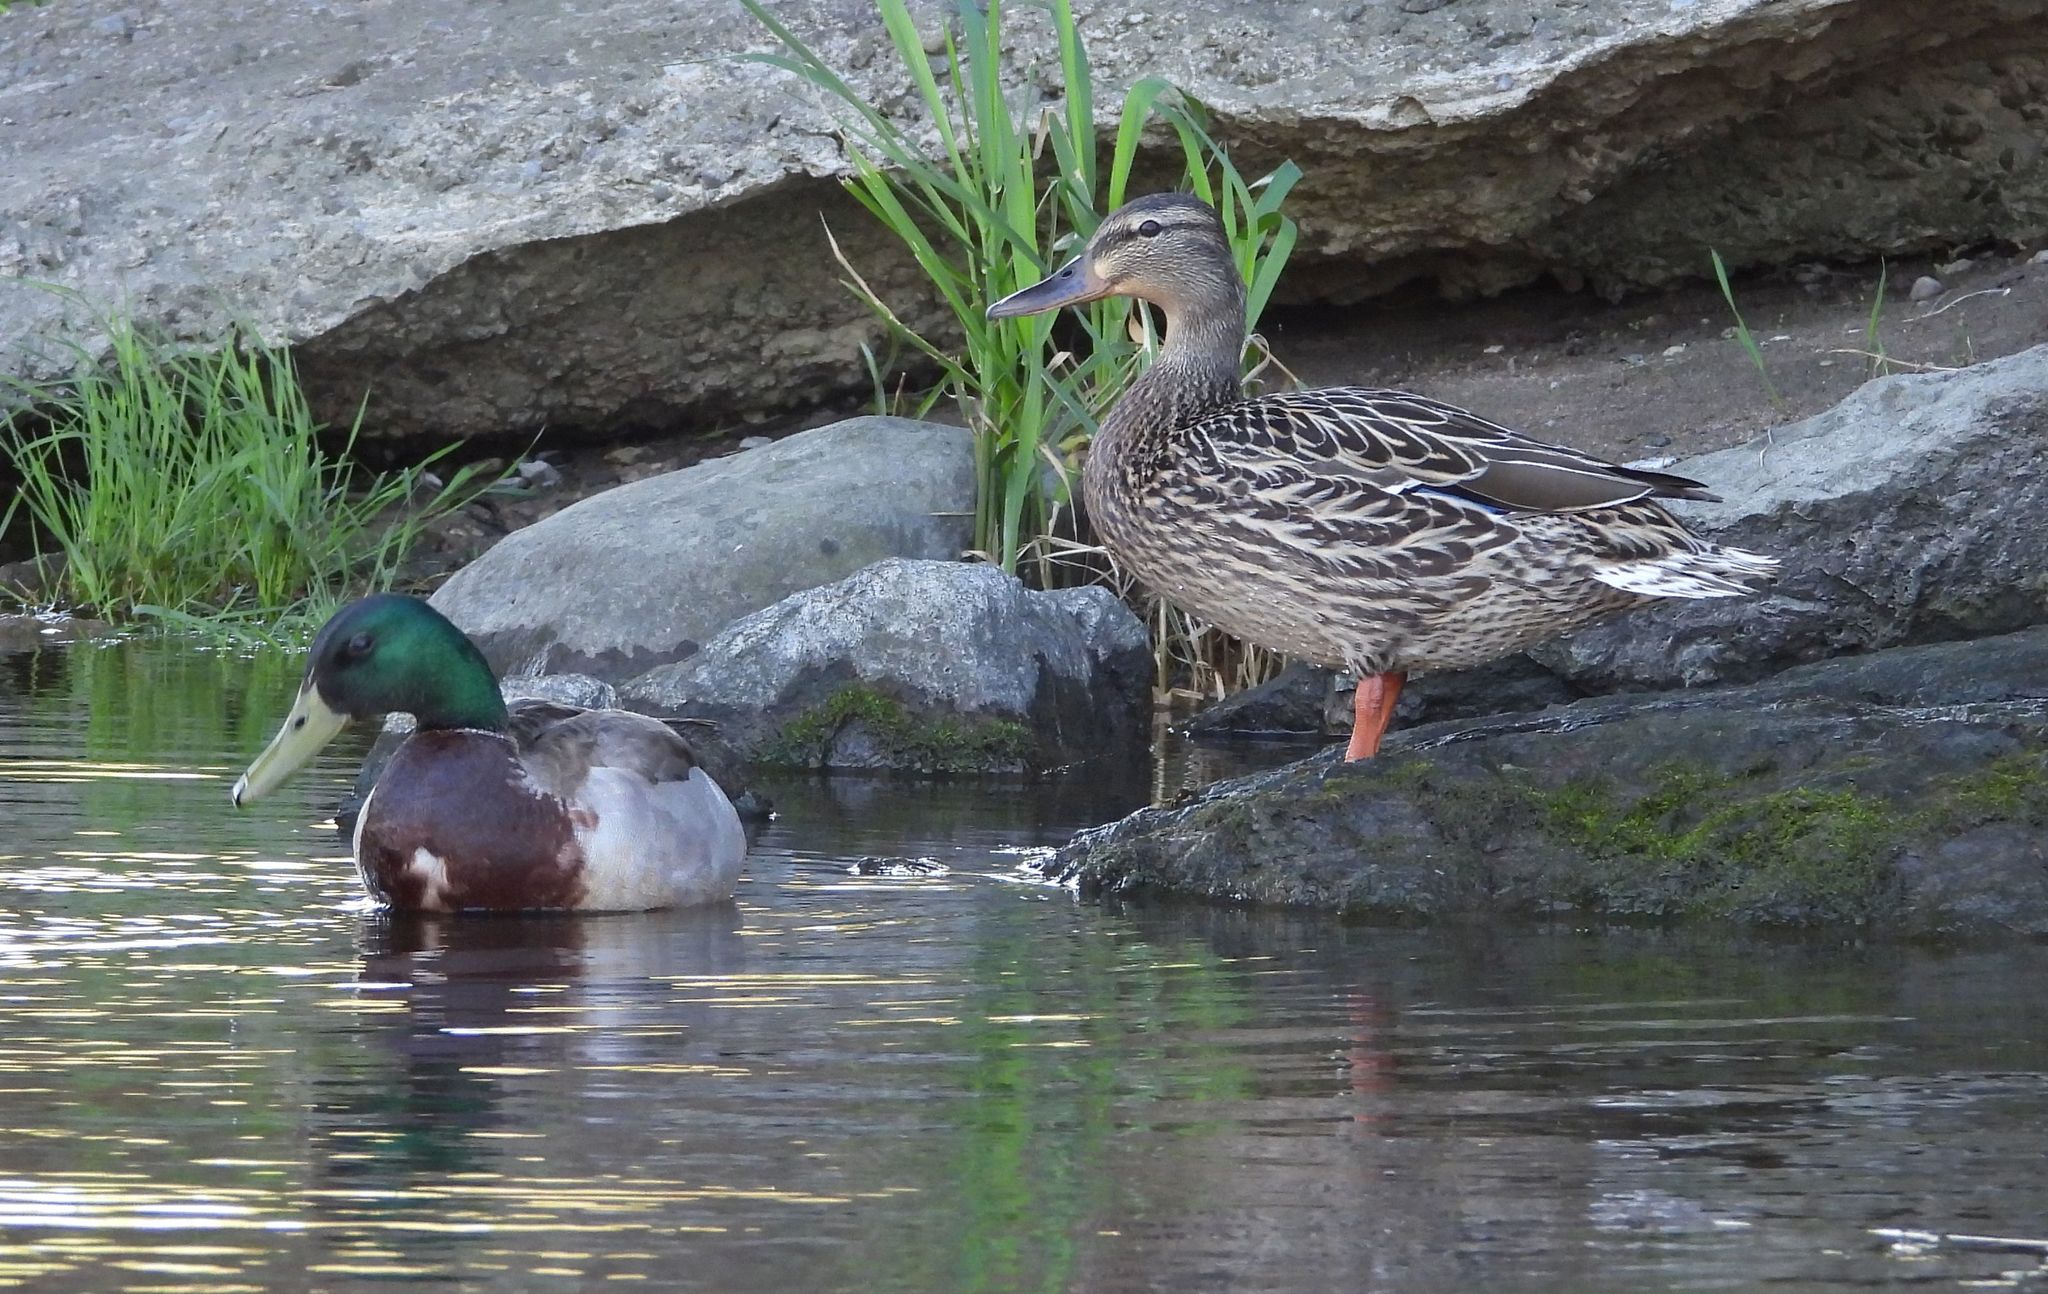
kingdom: Animalia
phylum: Chordata
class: Aves
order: Anseriformes
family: Anatidae
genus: Anas
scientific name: Anas platyrhynchos
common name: Mallard
